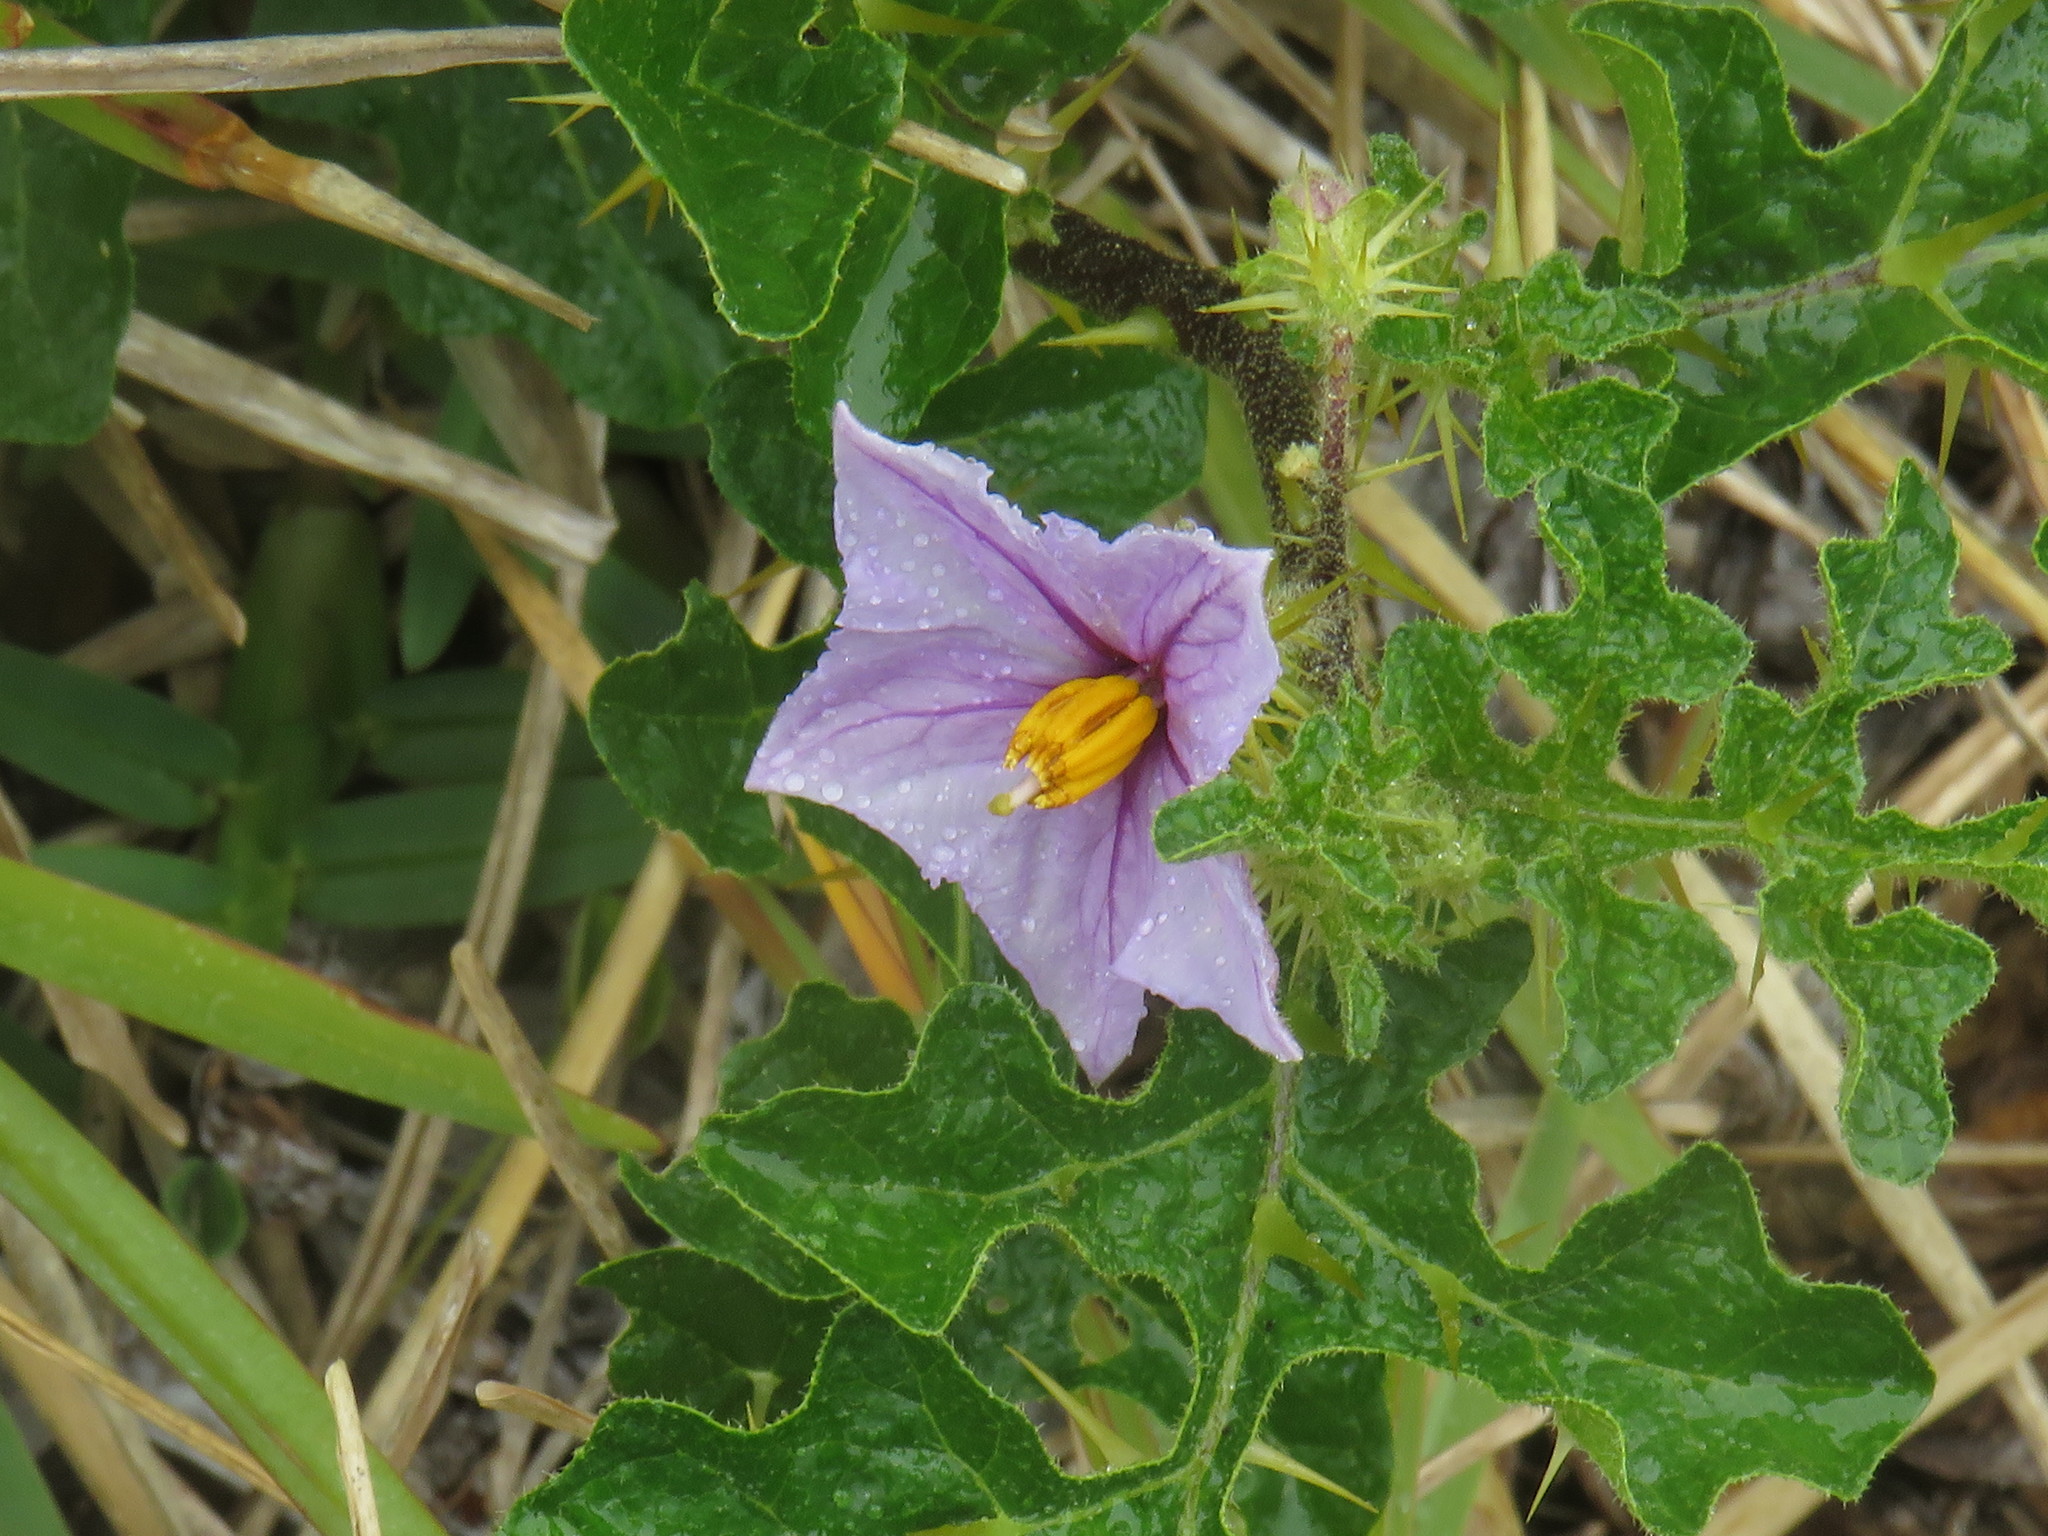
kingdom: Plantae
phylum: Tracheophyta
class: Magnoliopsida
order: Solanales
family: Solanaceae
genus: Solanum
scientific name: Solanum linnaeanum
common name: Nightshade
